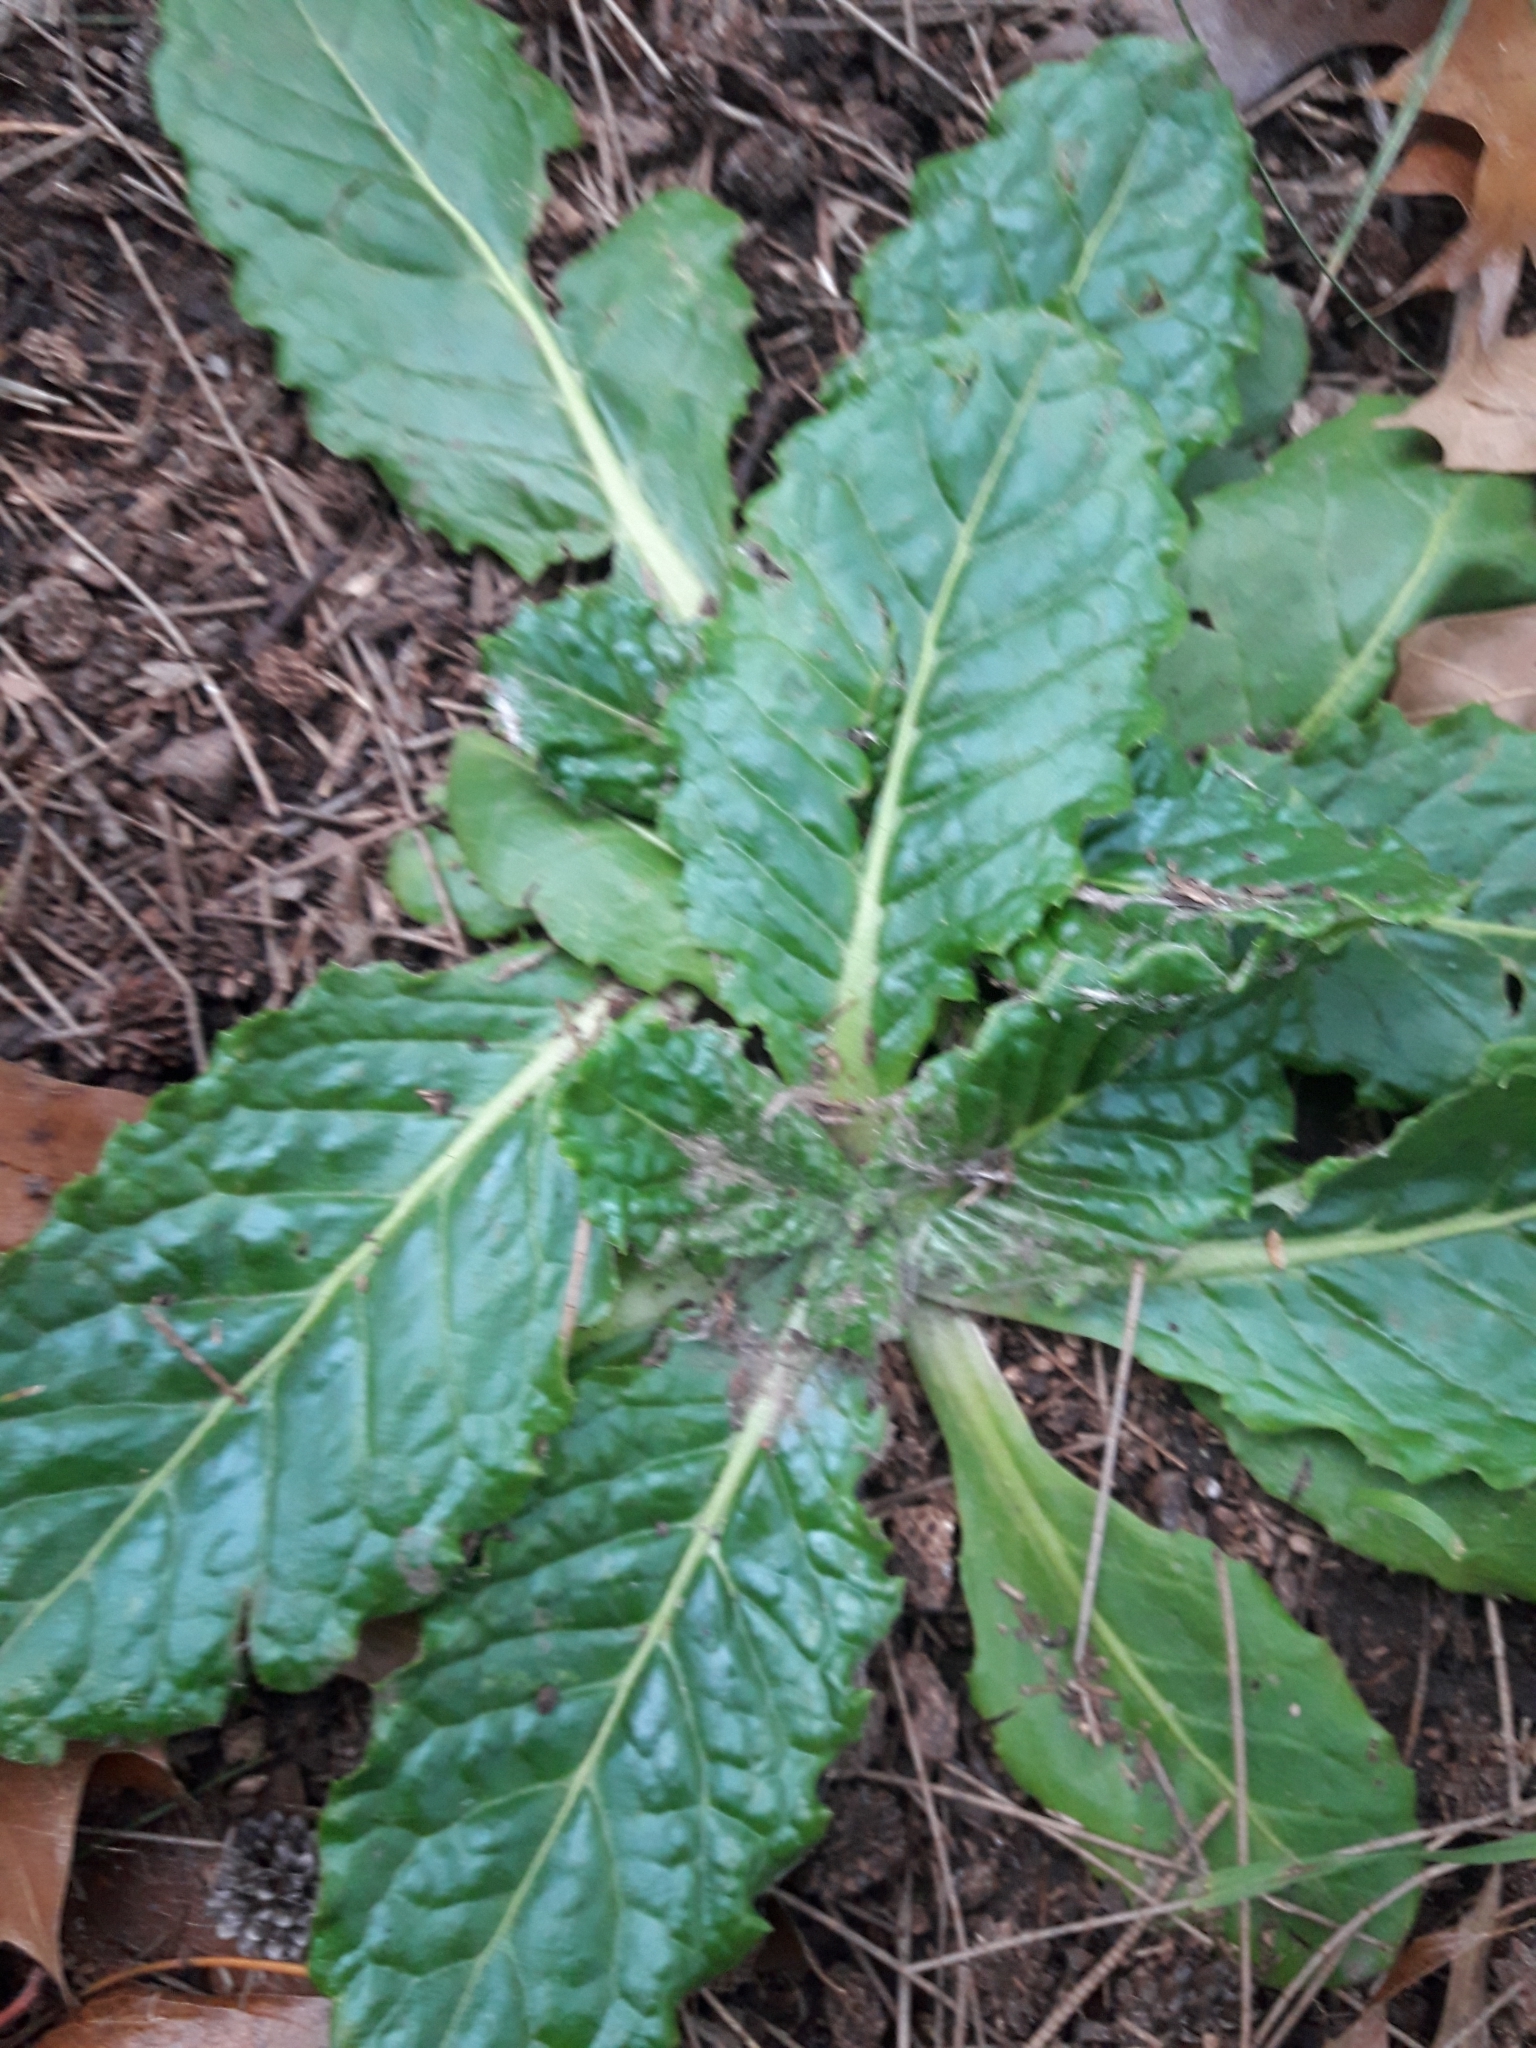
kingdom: Plantae
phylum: Tracheophyta
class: Magnoliopsida
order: Asterales
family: Asteraceae
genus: Chaptalia
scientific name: Chaptalia nutans
